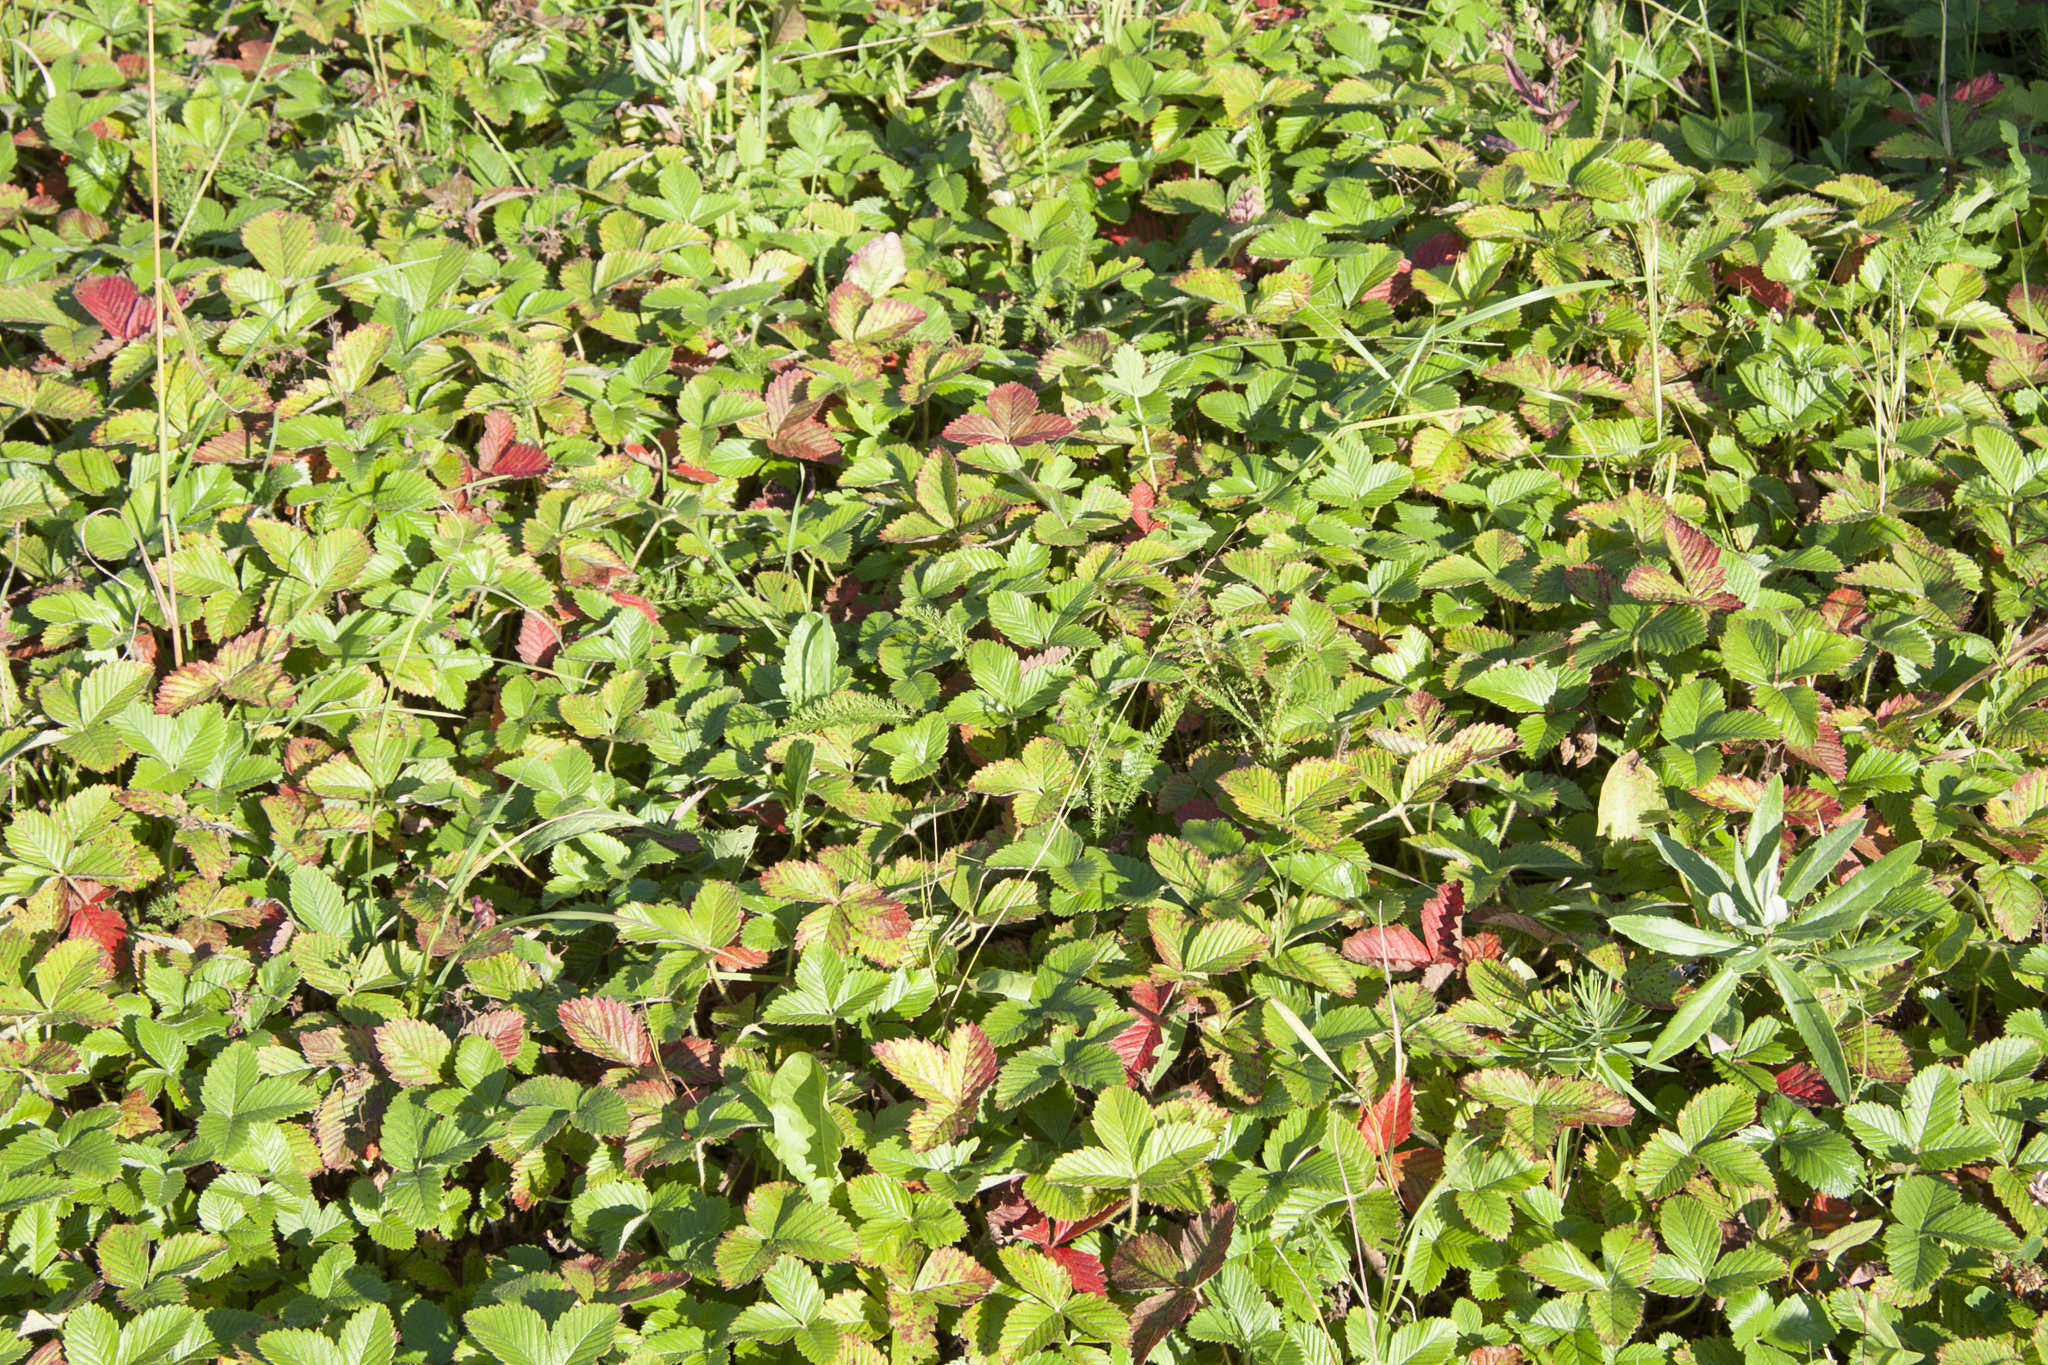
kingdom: Plantae
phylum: Tracheophyta
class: Magnoliopsida
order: Rosales
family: Rosaceae
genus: Fragaria
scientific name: Fragaria viridis
